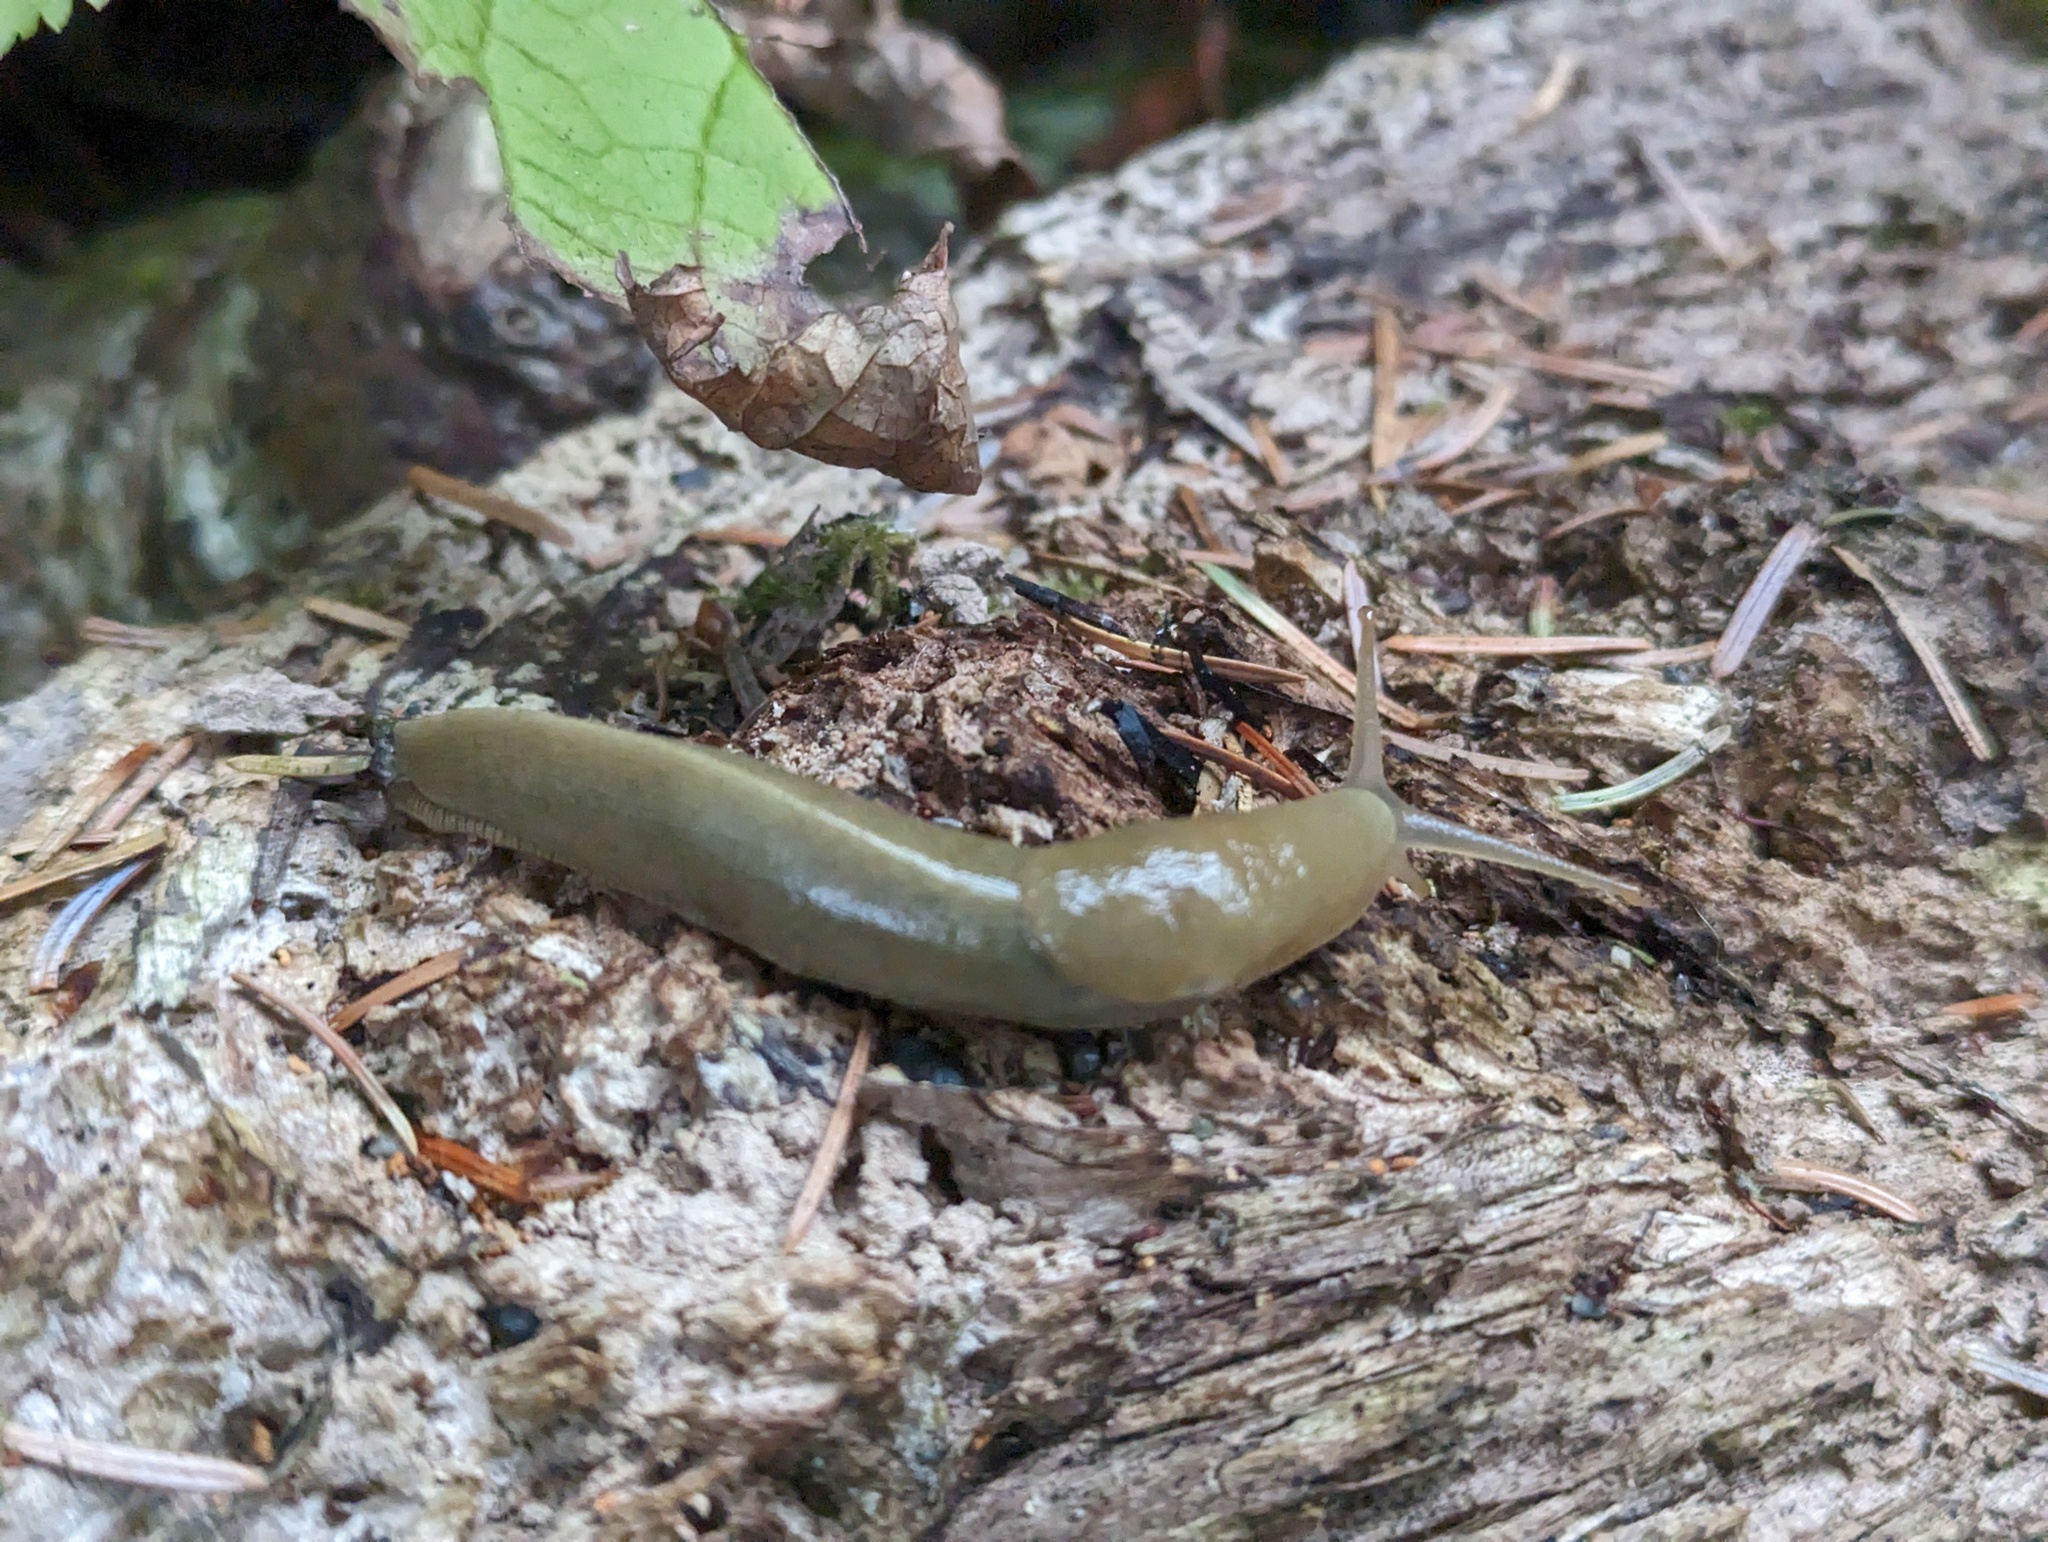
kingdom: Animalia
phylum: Mollusca
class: Gastropoda
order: Stylommatophora
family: Ariolimacidae
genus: Ariolimax
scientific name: Ariolimax columbianus
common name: Pacific banana slug
